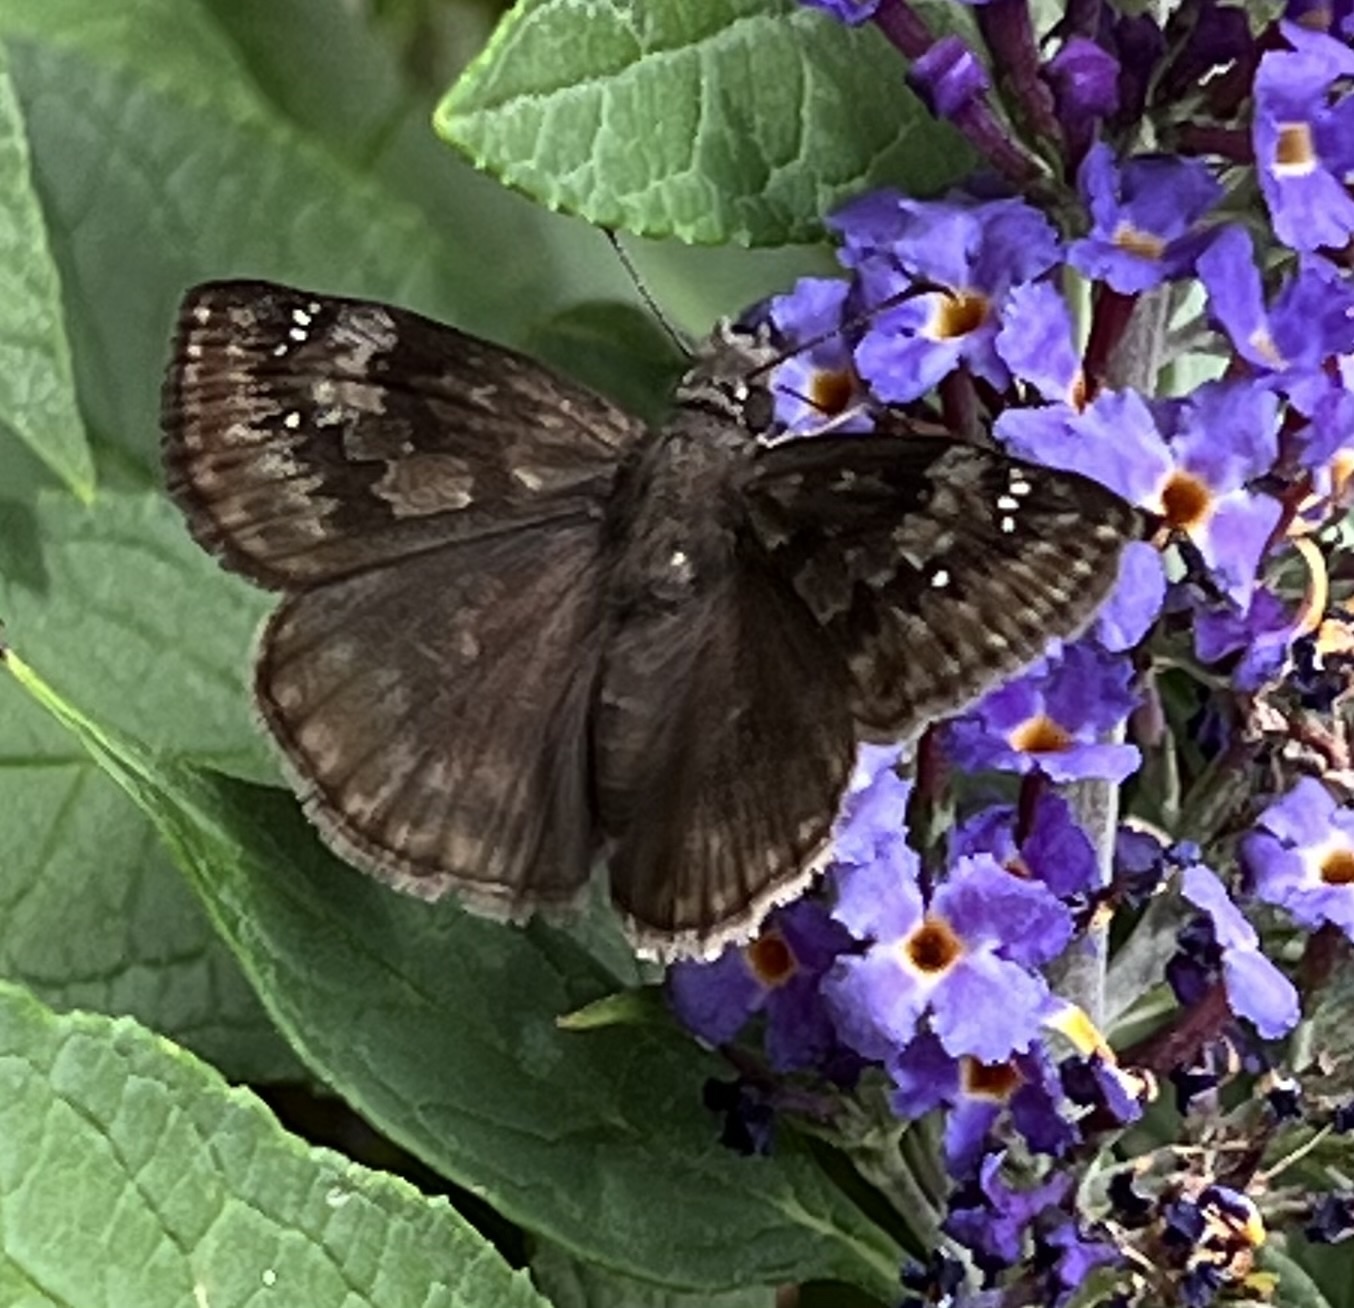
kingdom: Animalia
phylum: Arthropoda
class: Insecta
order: Lepidoptera
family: Hesperiidae
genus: Erynnis
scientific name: Erynnis baptisiae
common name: Wild indigo duskywing
